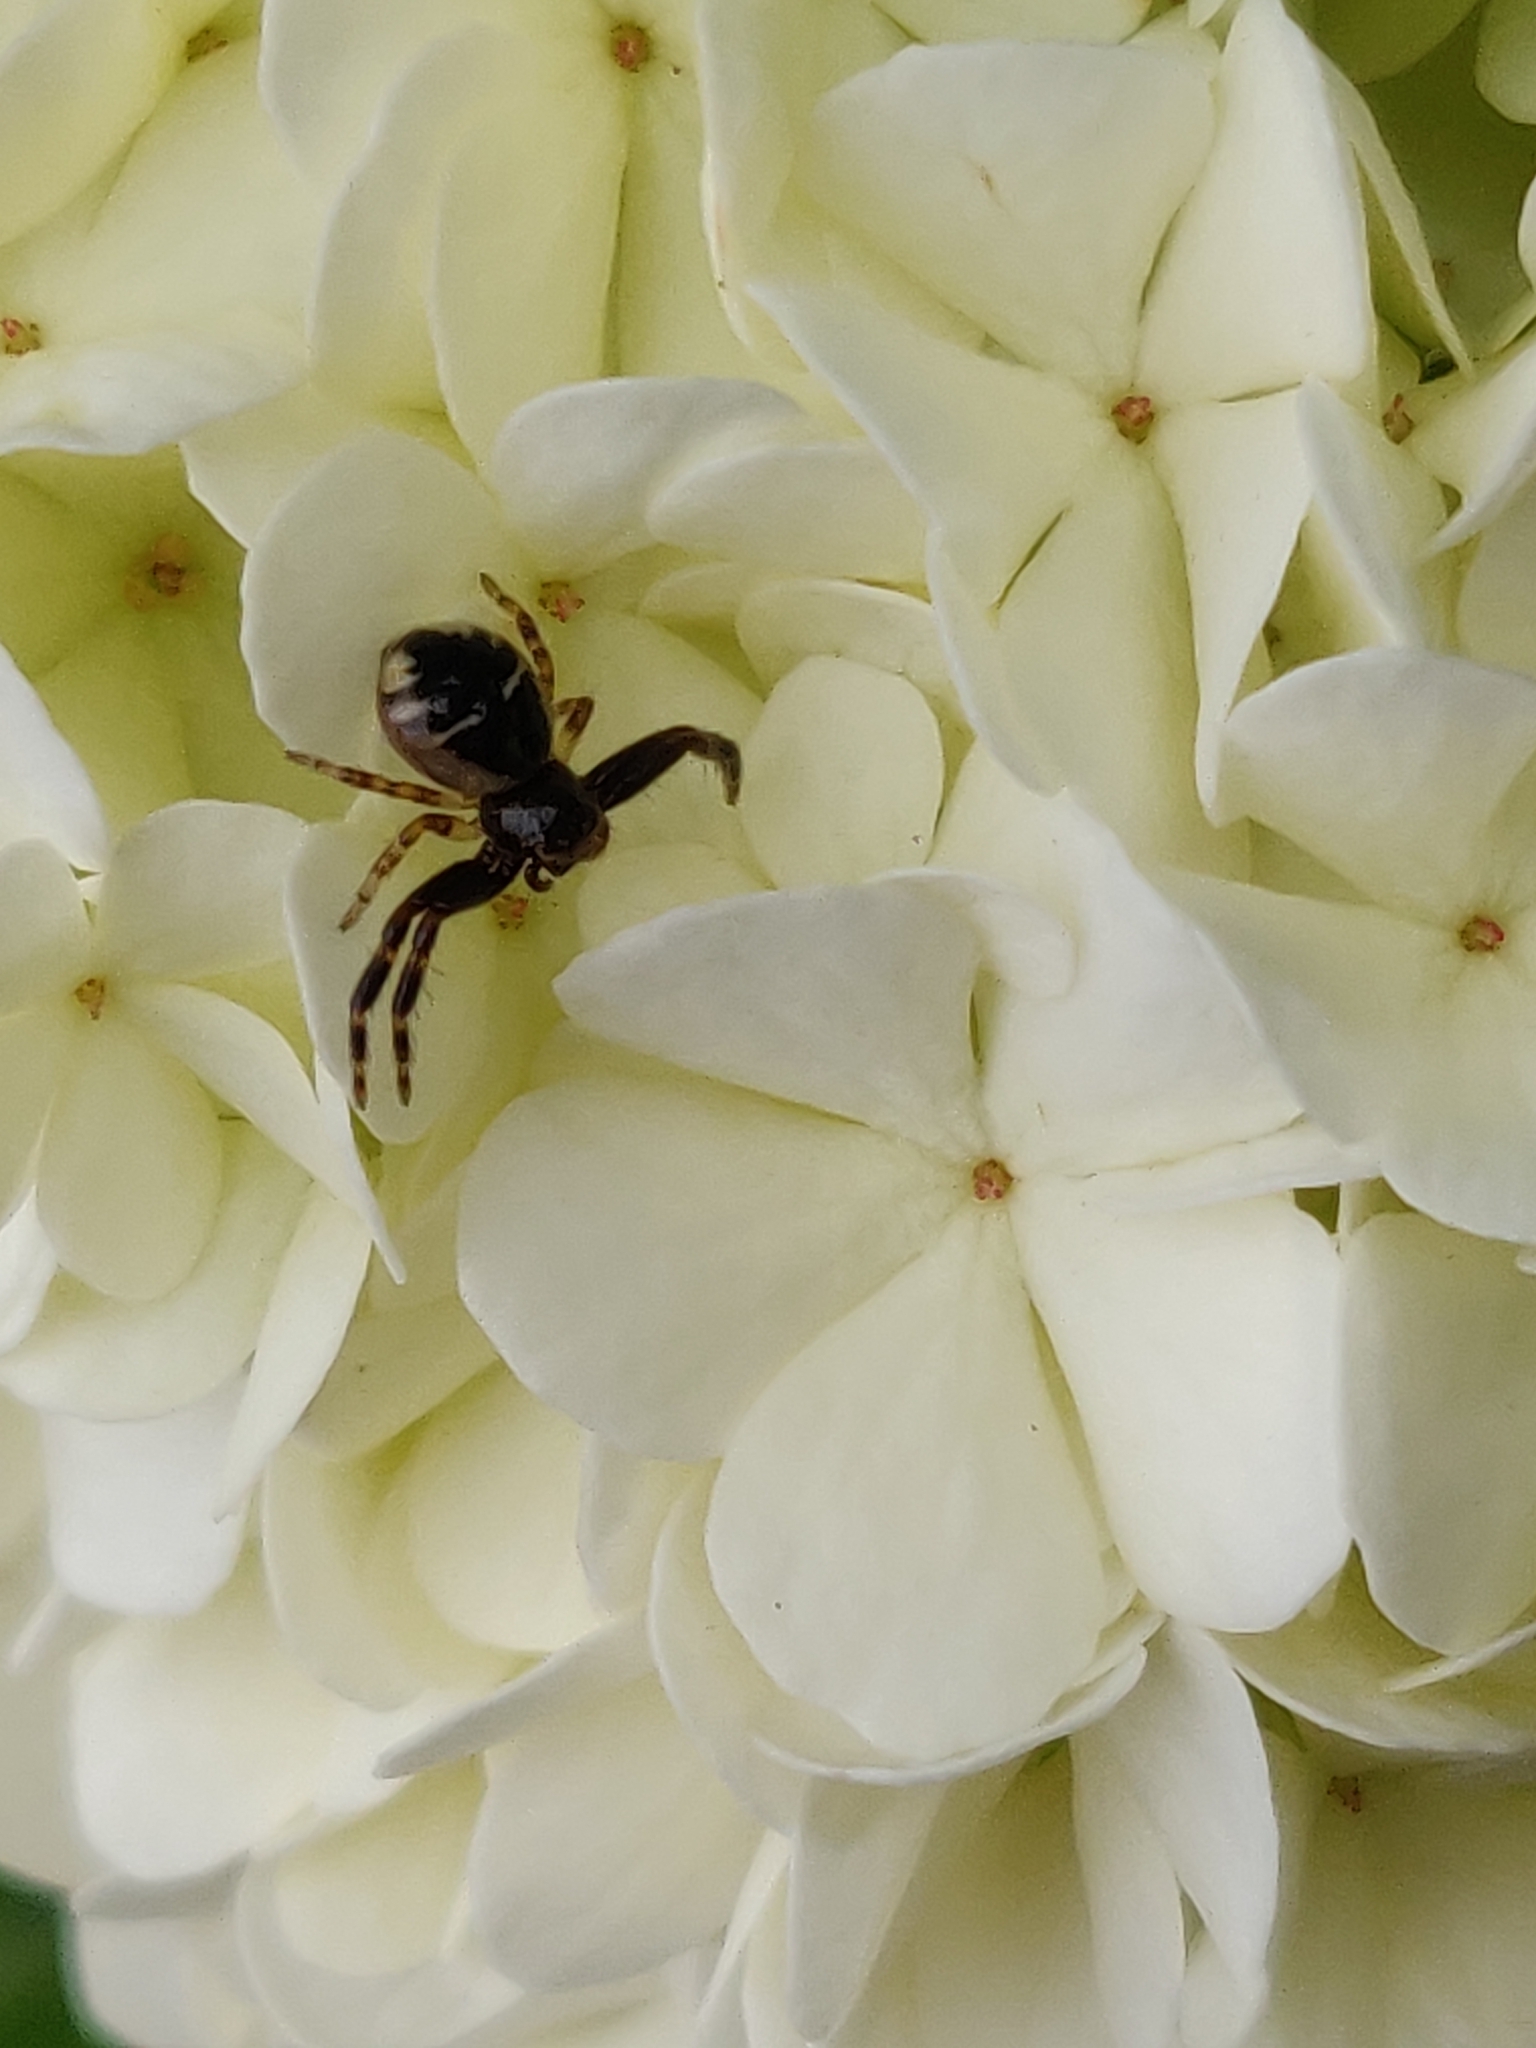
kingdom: Animalia
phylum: Arthropoda
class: Arachnida
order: Araneae
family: Thomisidae
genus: Synema
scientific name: Synema globosum
